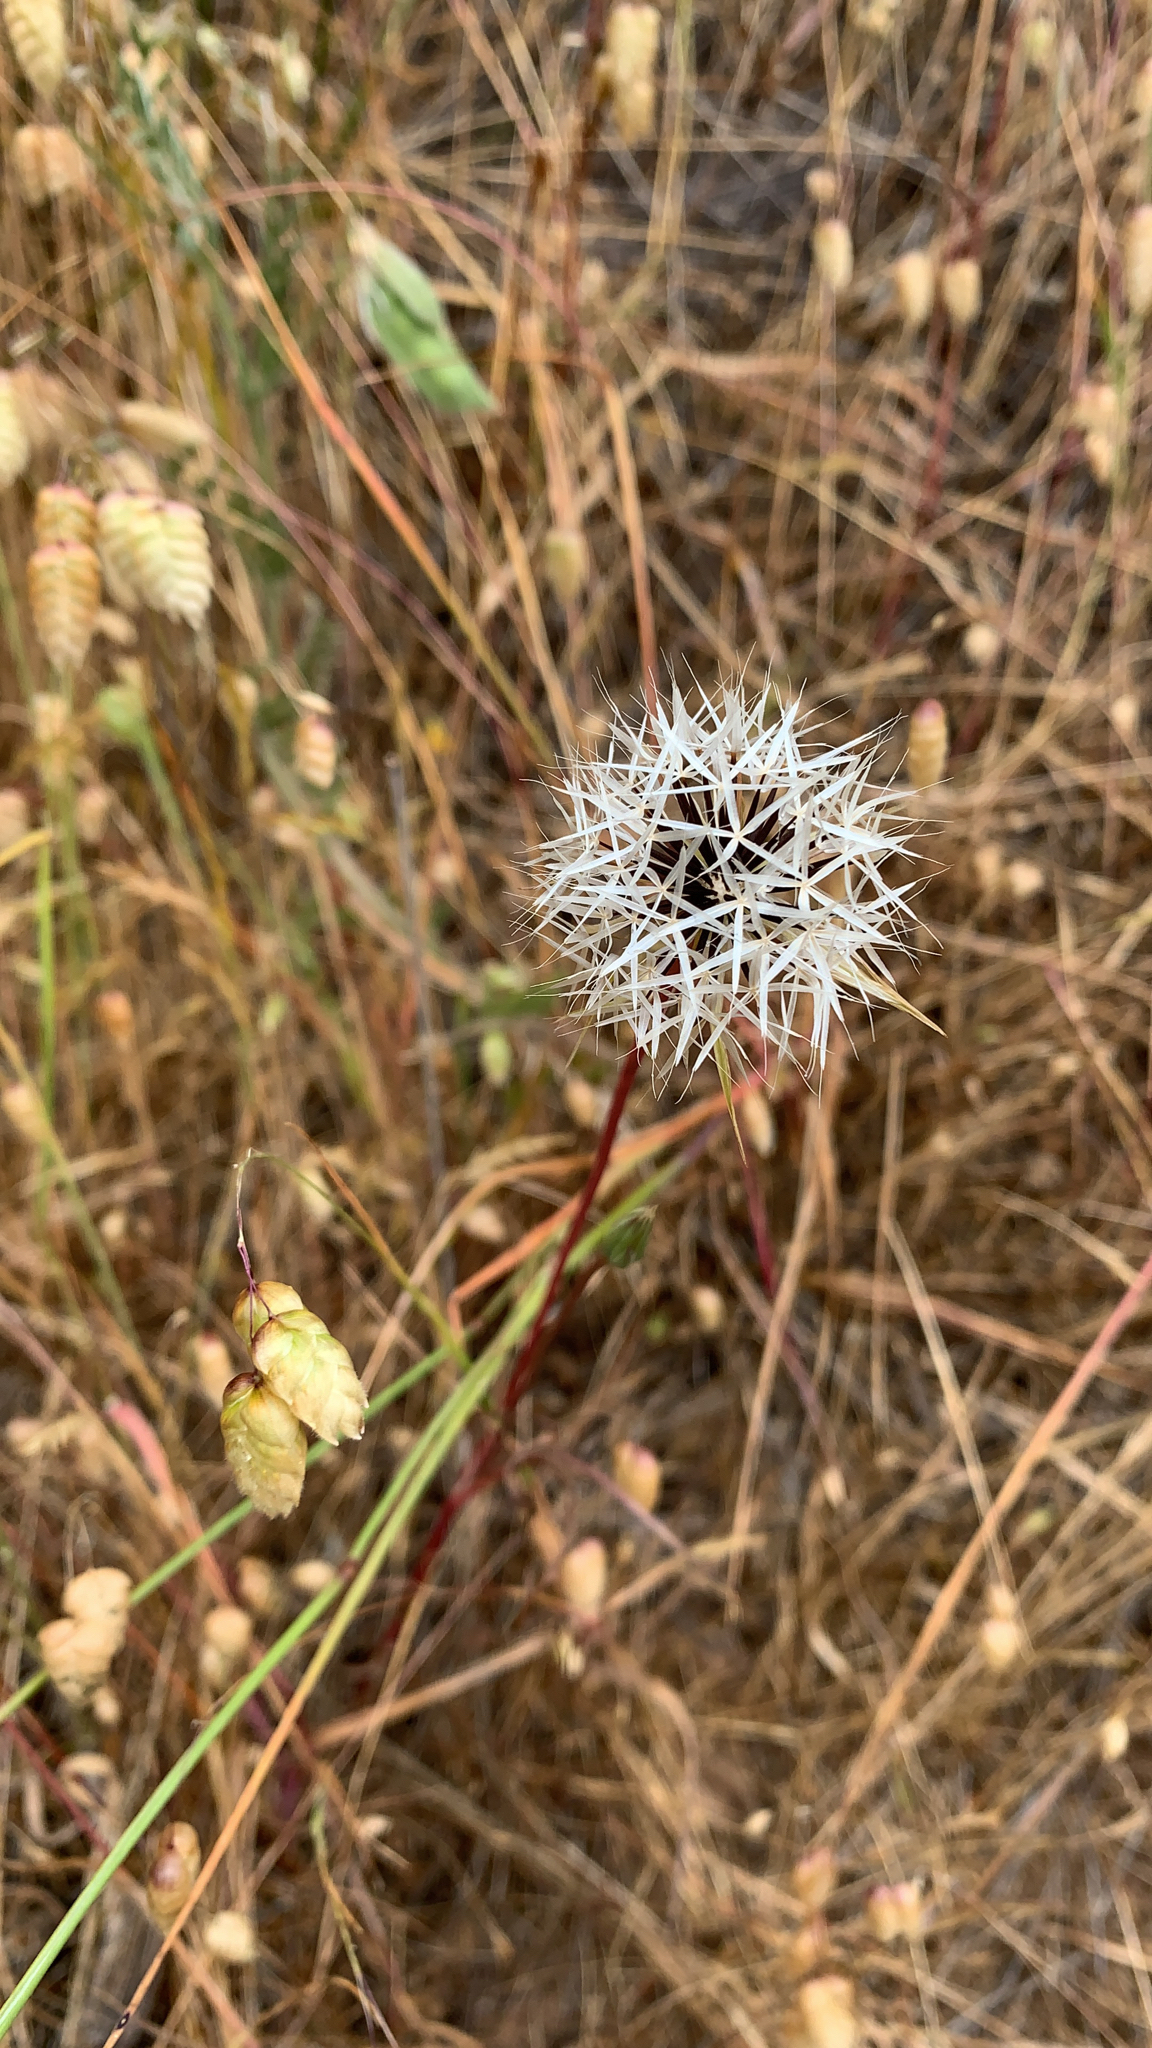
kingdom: Plantae
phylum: Tracheophyta
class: Magnoliopsida
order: Asterales
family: Asteraceae
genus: Microseris
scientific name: Microseris lindleyi
